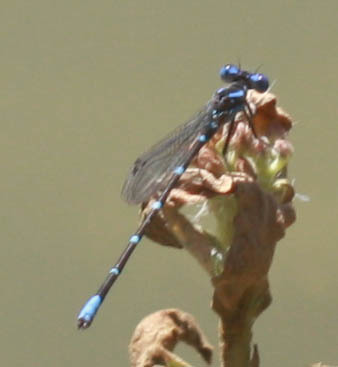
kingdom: Animalia
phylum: Arthropoda
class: Insecta
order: Odonata
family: Coenagrionidae
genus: Argia
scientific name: Argia sedula
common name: Blue-ringed dancer
